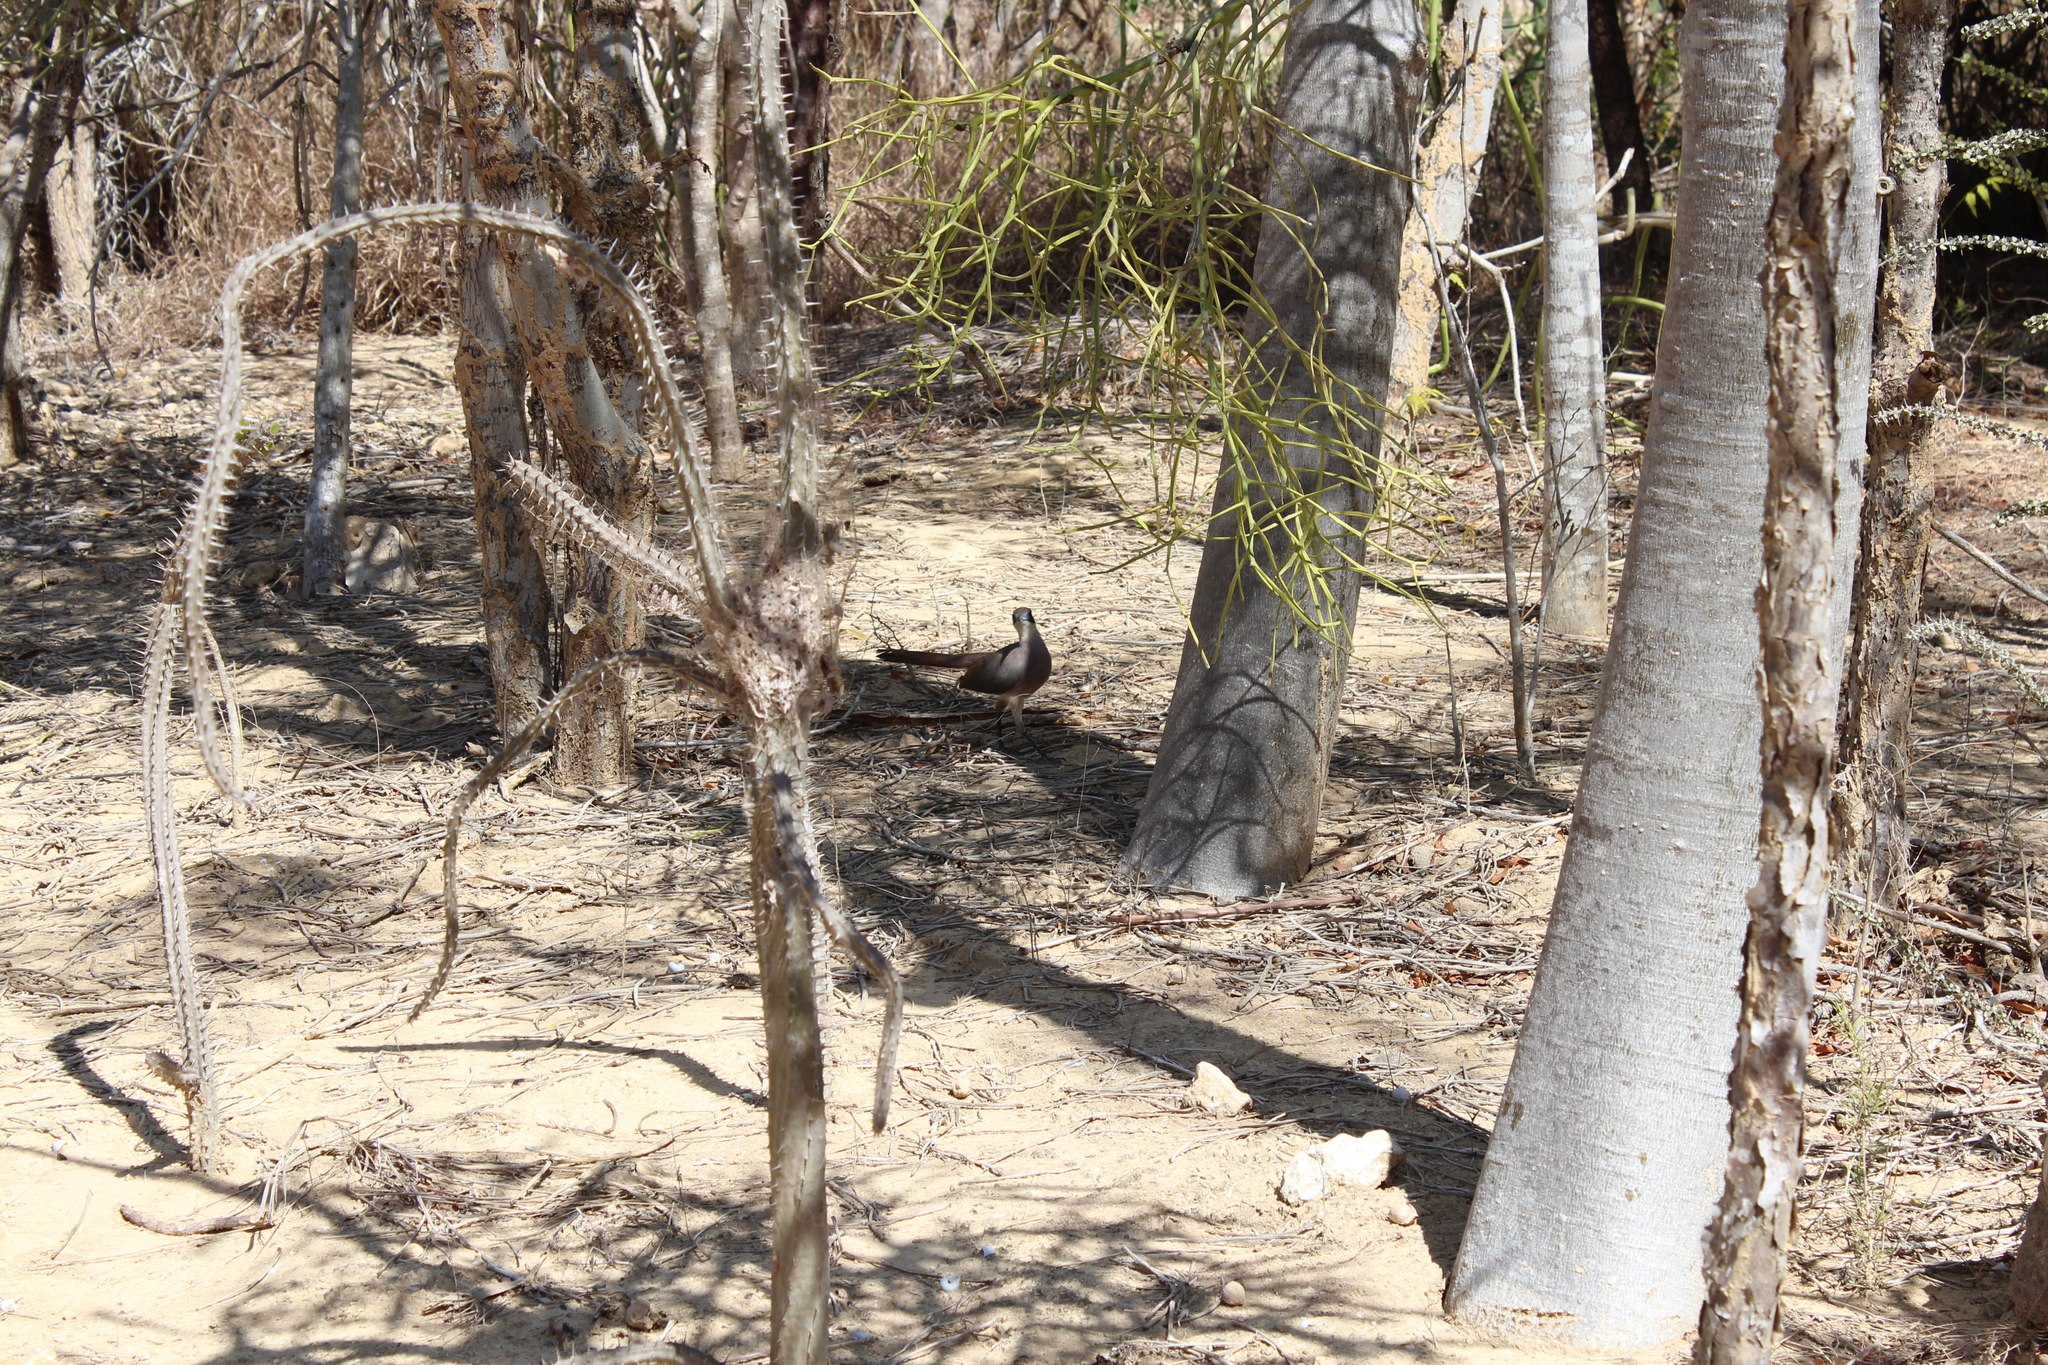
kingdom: Animalia
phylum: Chordata
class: Aves
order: Cuculiformes
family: Cuculidae
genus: Coua
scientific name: Coua ruficeps
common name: Red-capped coua
